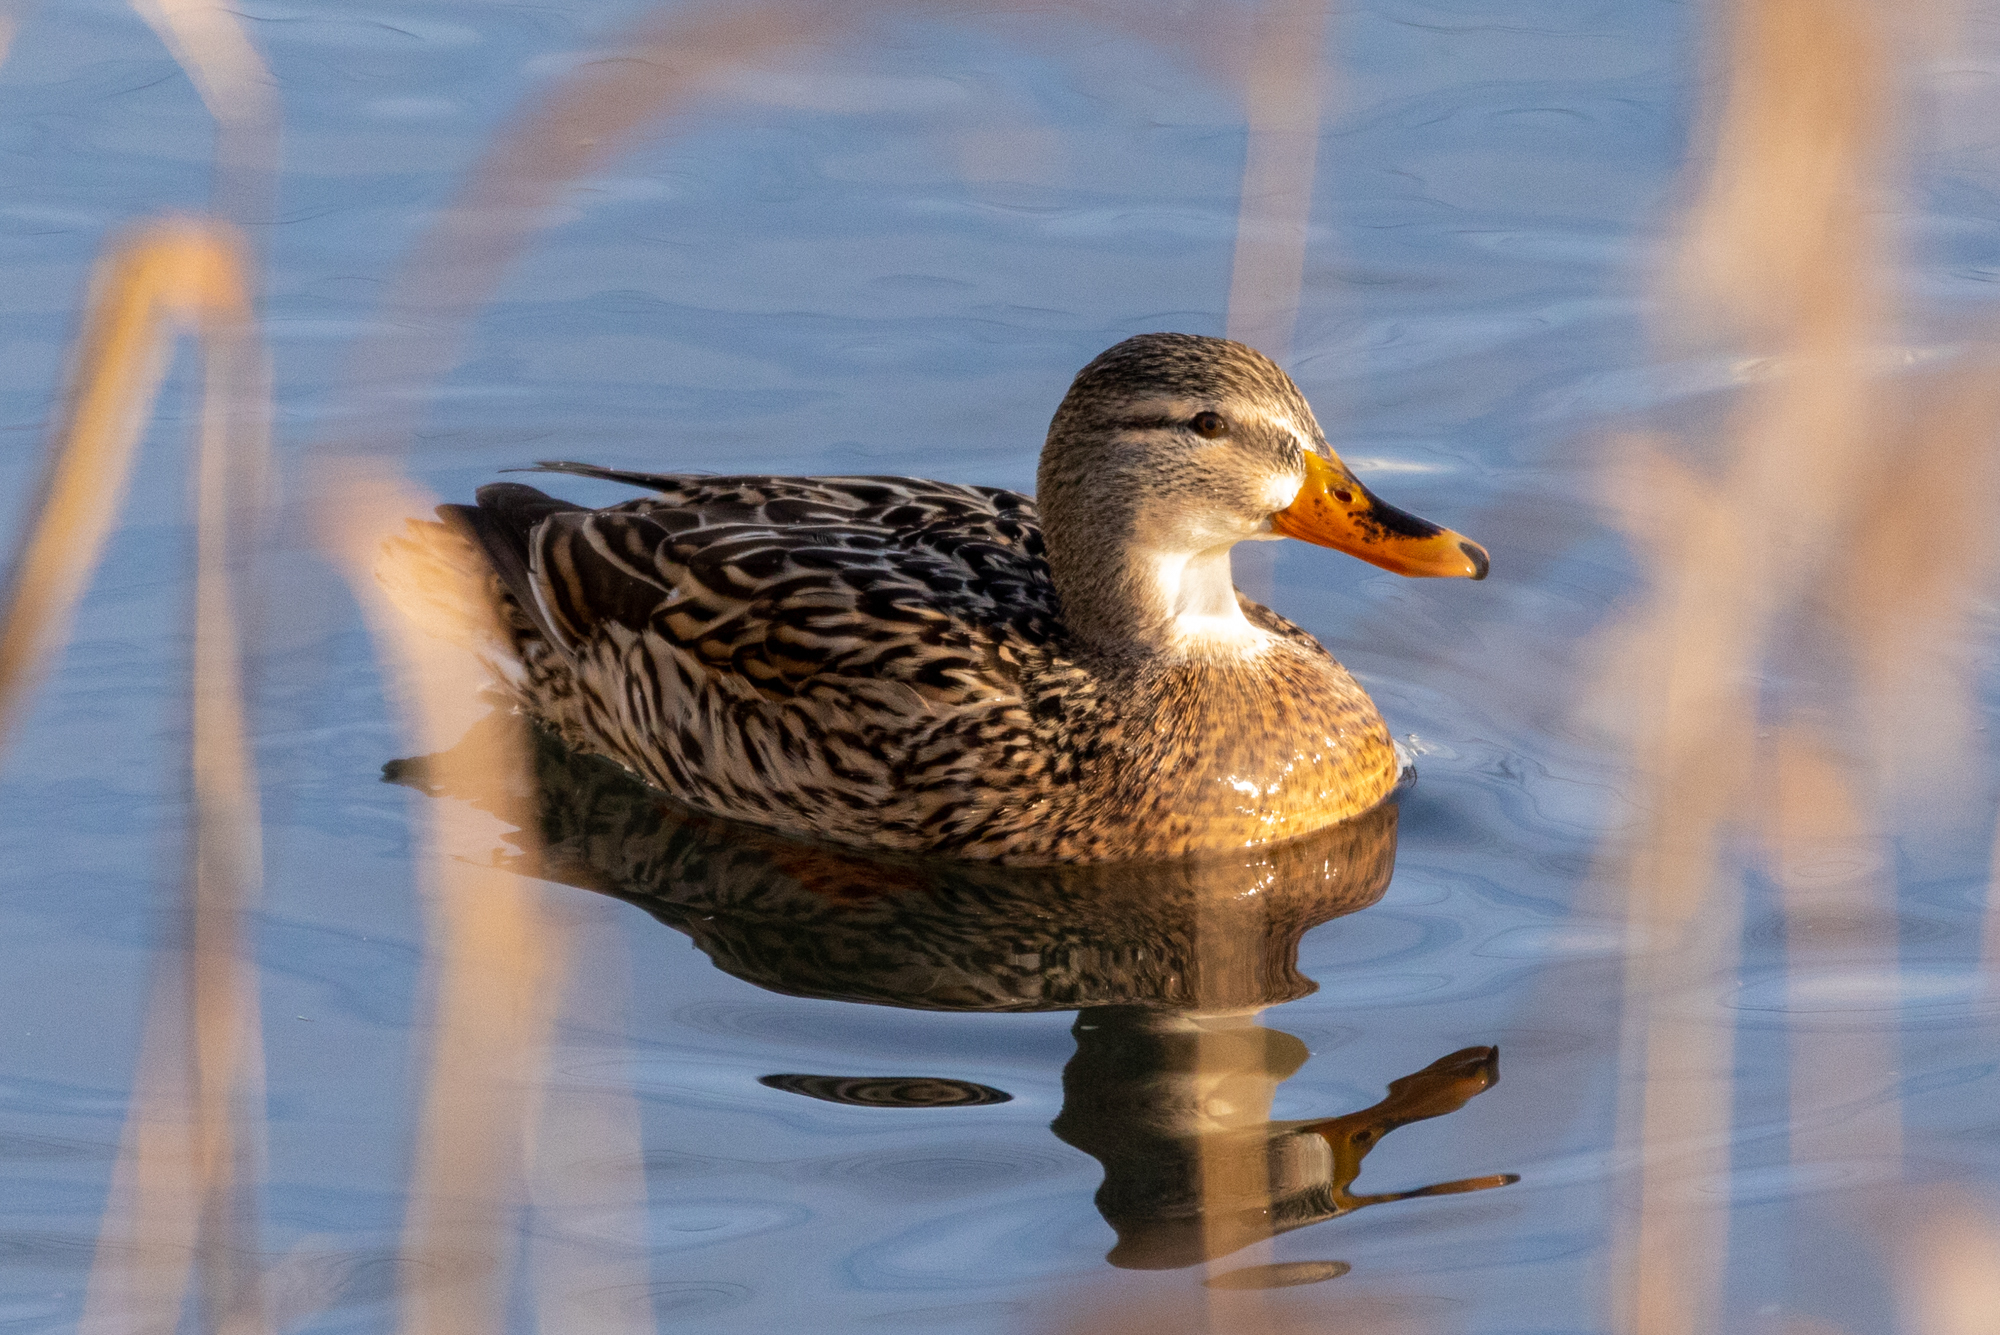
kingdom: Animalia
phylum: Chordata
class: Aves
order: Anseriformes
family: Anatidae
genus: Anas
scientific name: Anas platyrhynchos
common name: Mallard
